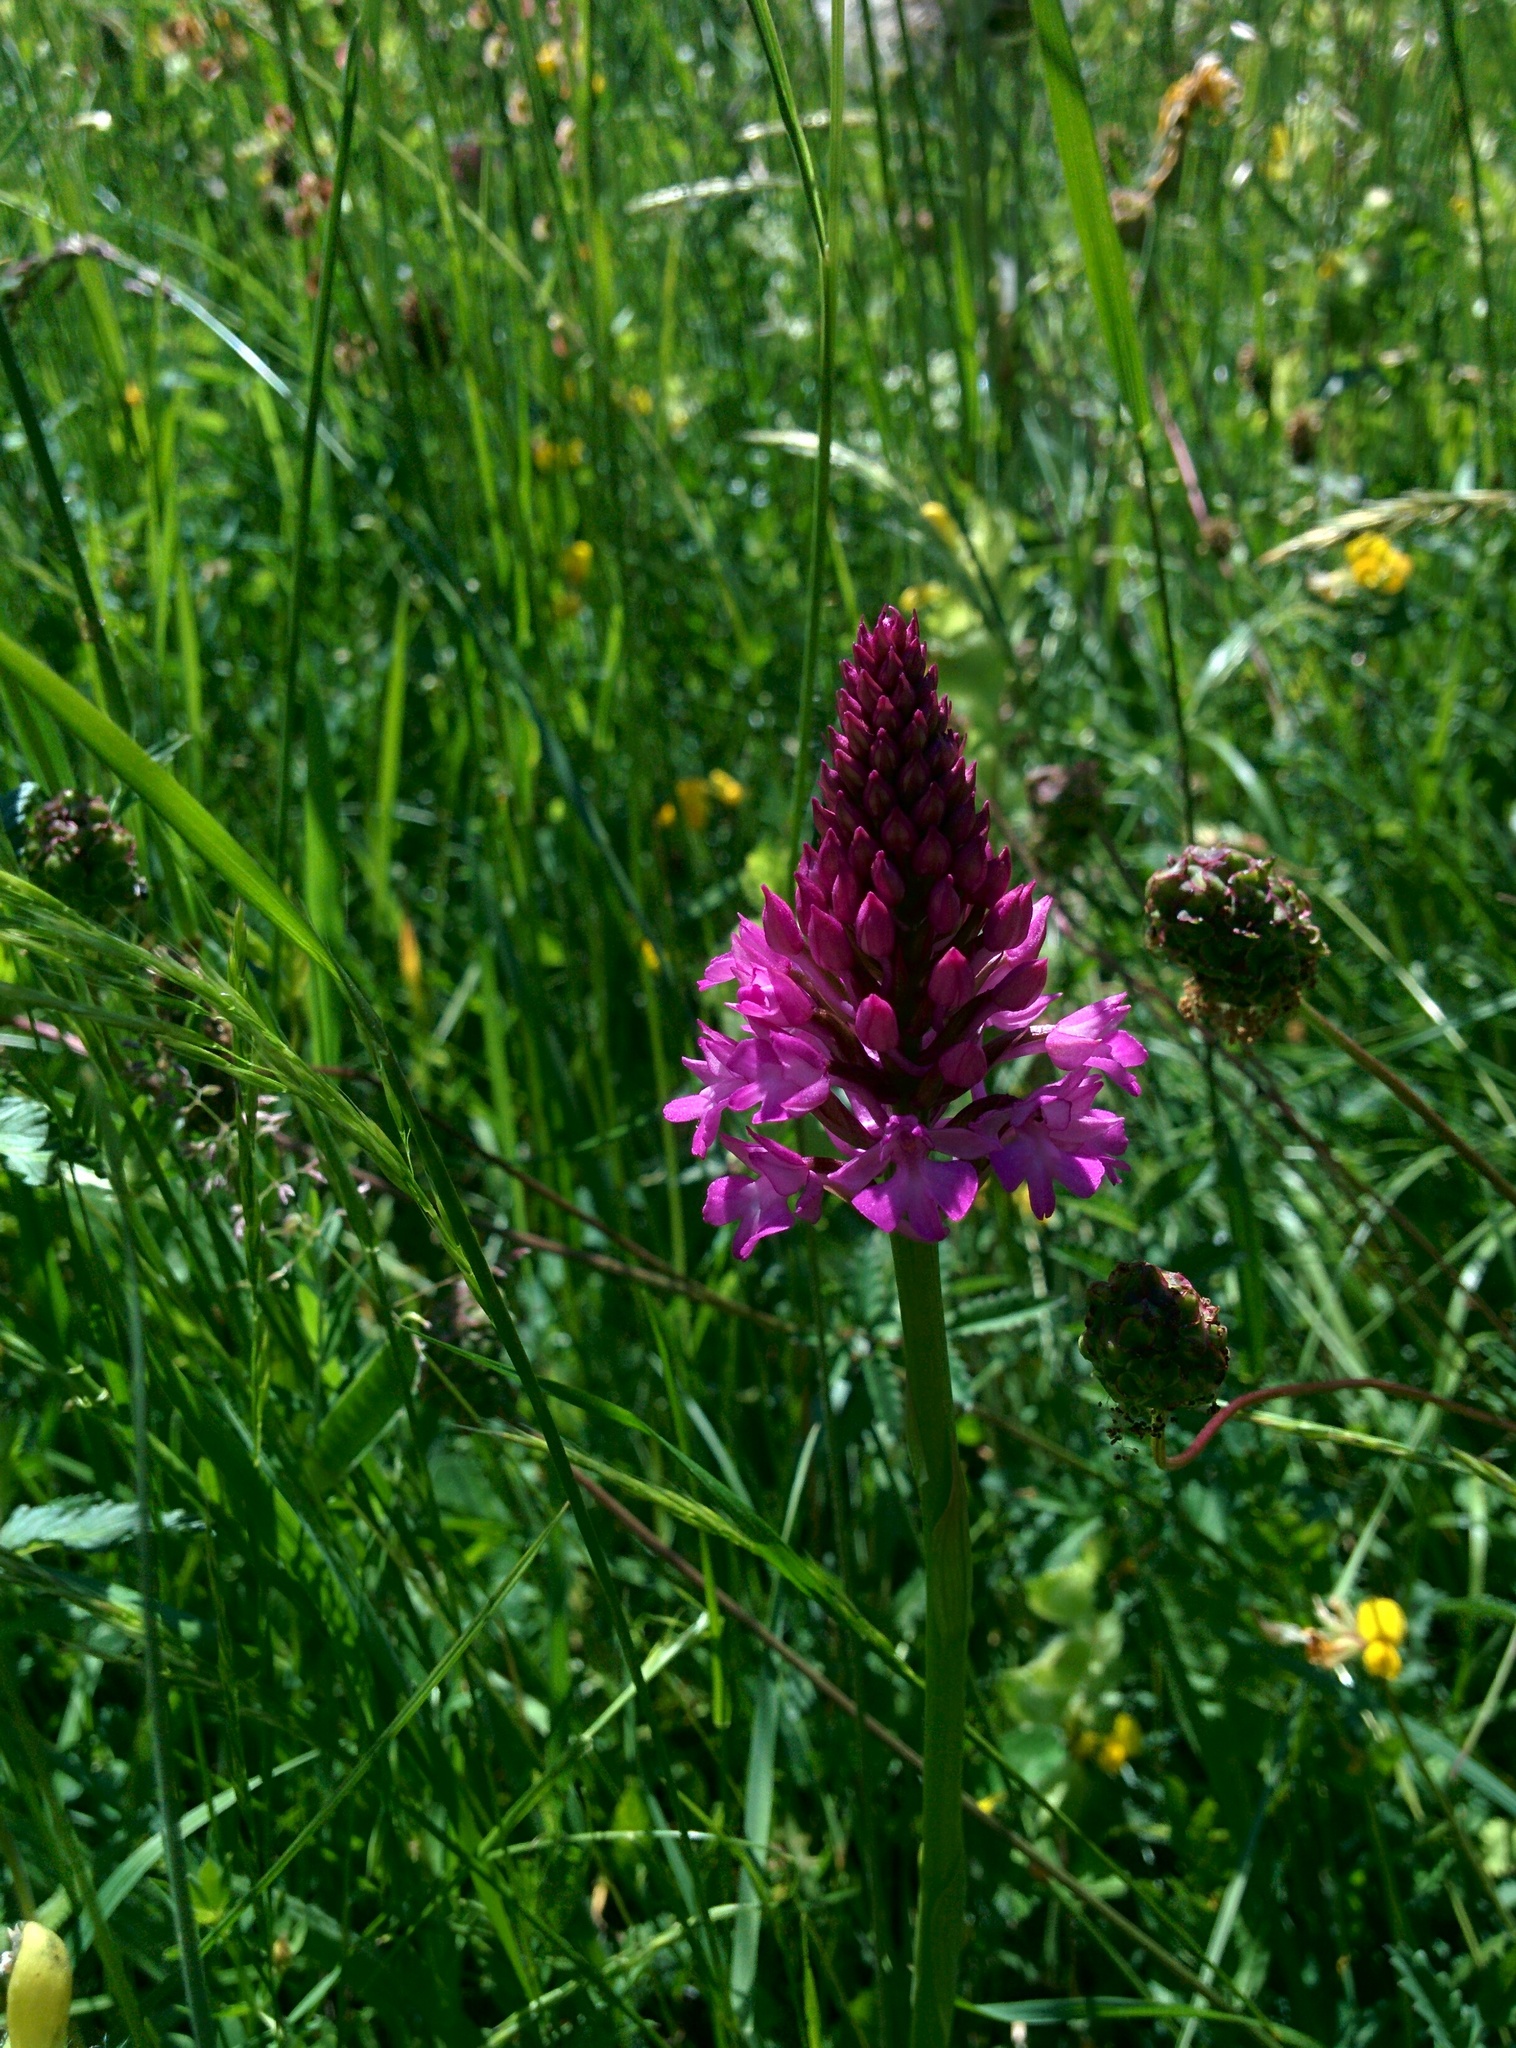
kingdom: Plantae
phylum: Tracheophyta
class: Liliopsida
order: Asparagales
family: Orchidaceae
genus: Anacamptis
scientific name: Anacamptis pyramidalis
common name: Pyramidal orchid
